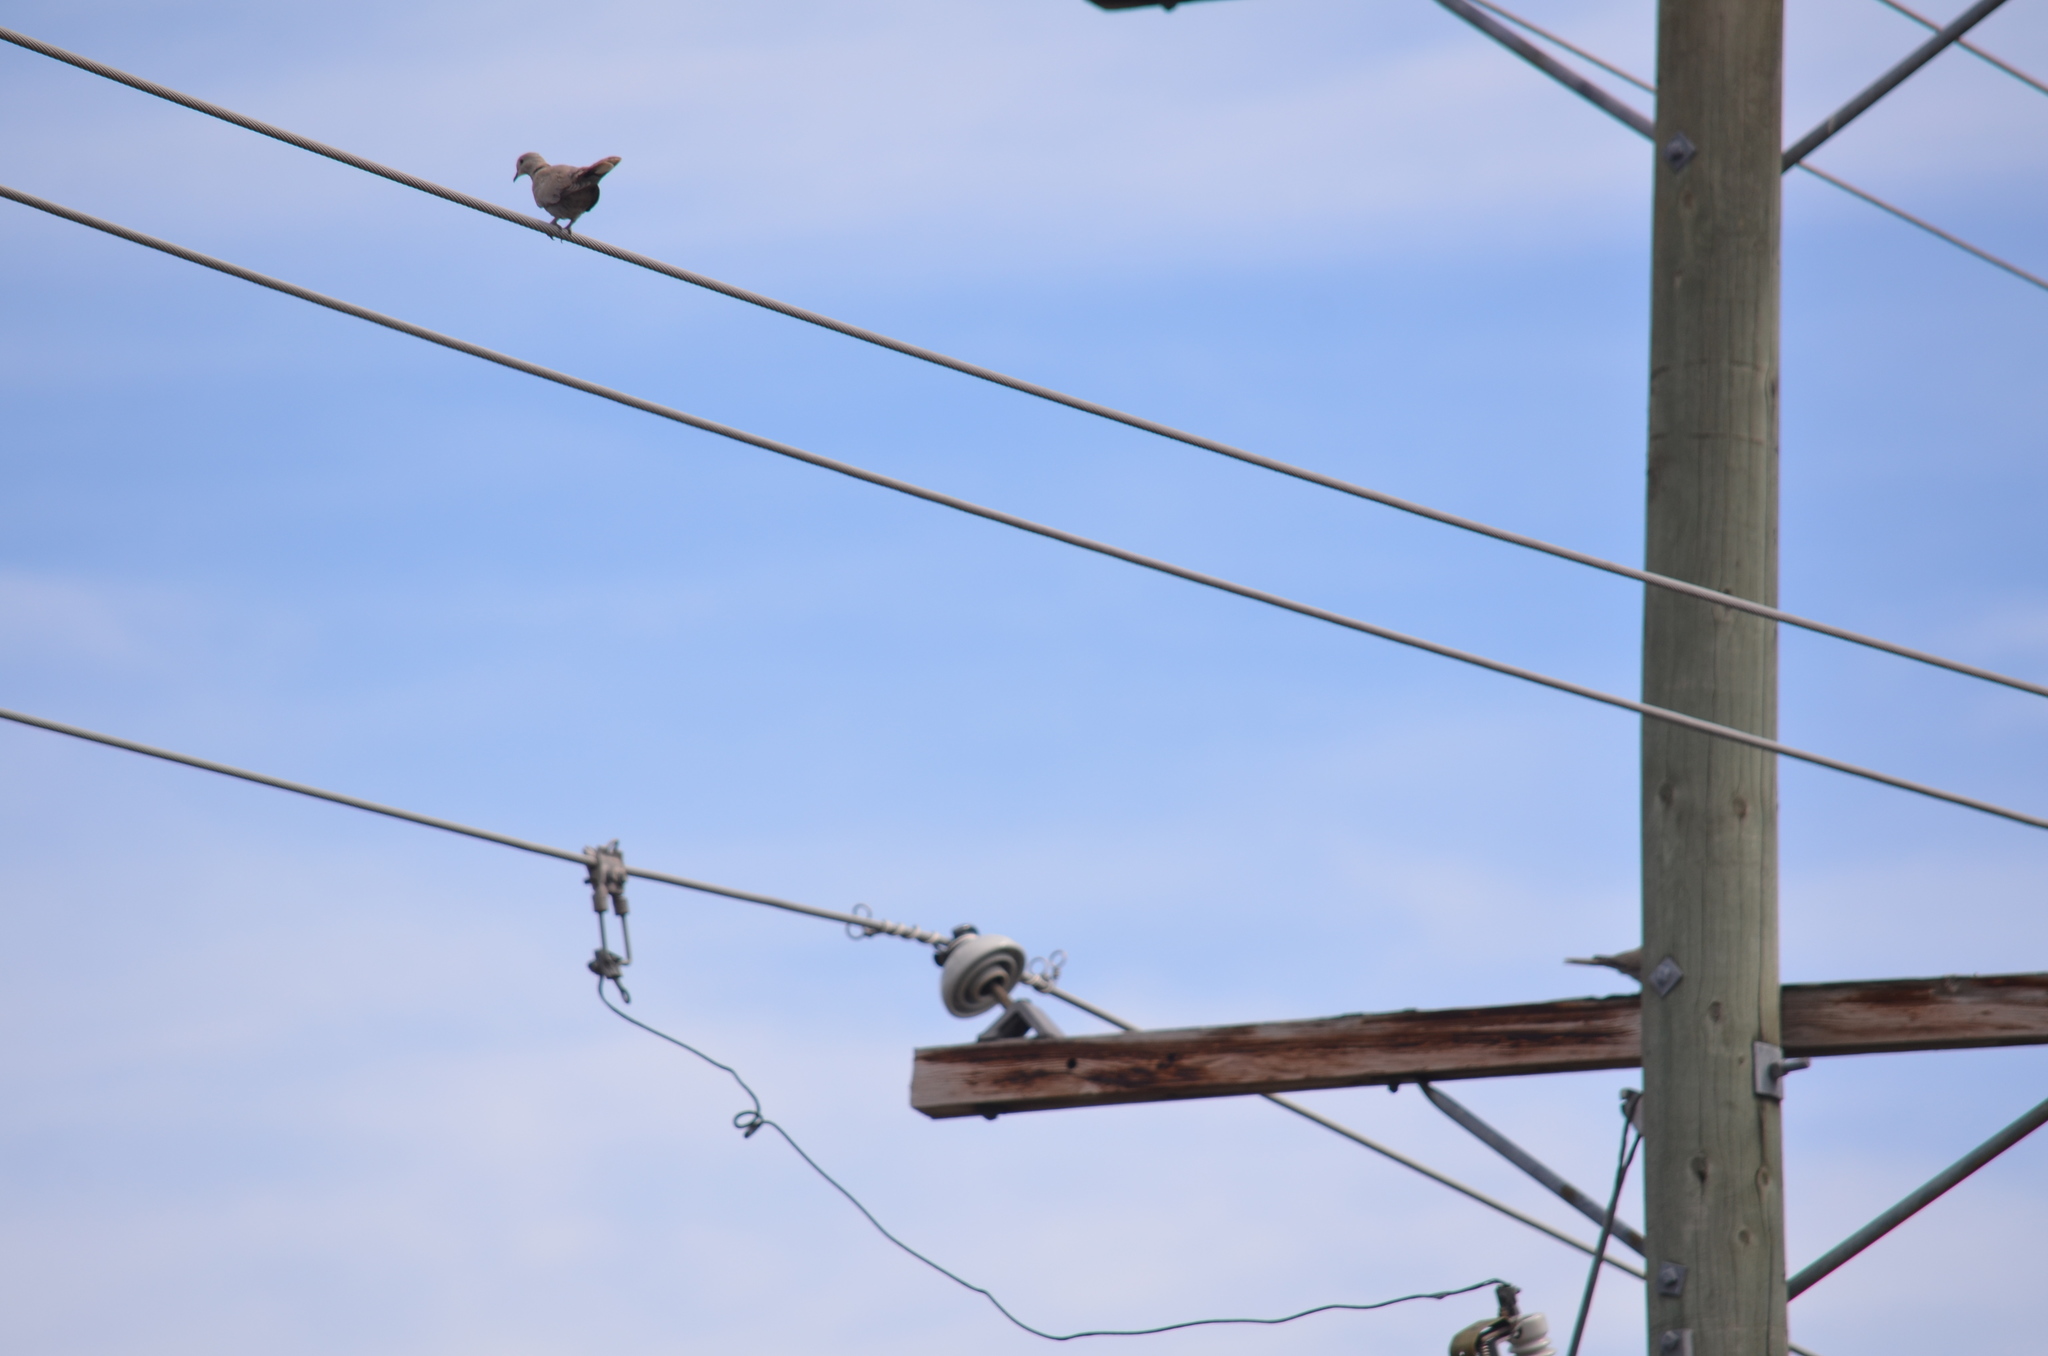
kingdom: Animalia
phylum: Chordata
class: Aves
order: Columbiformes
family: Columbidae
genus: Streptopelia
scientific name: Streptopelia decaocto
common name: Eurasian collared dove
